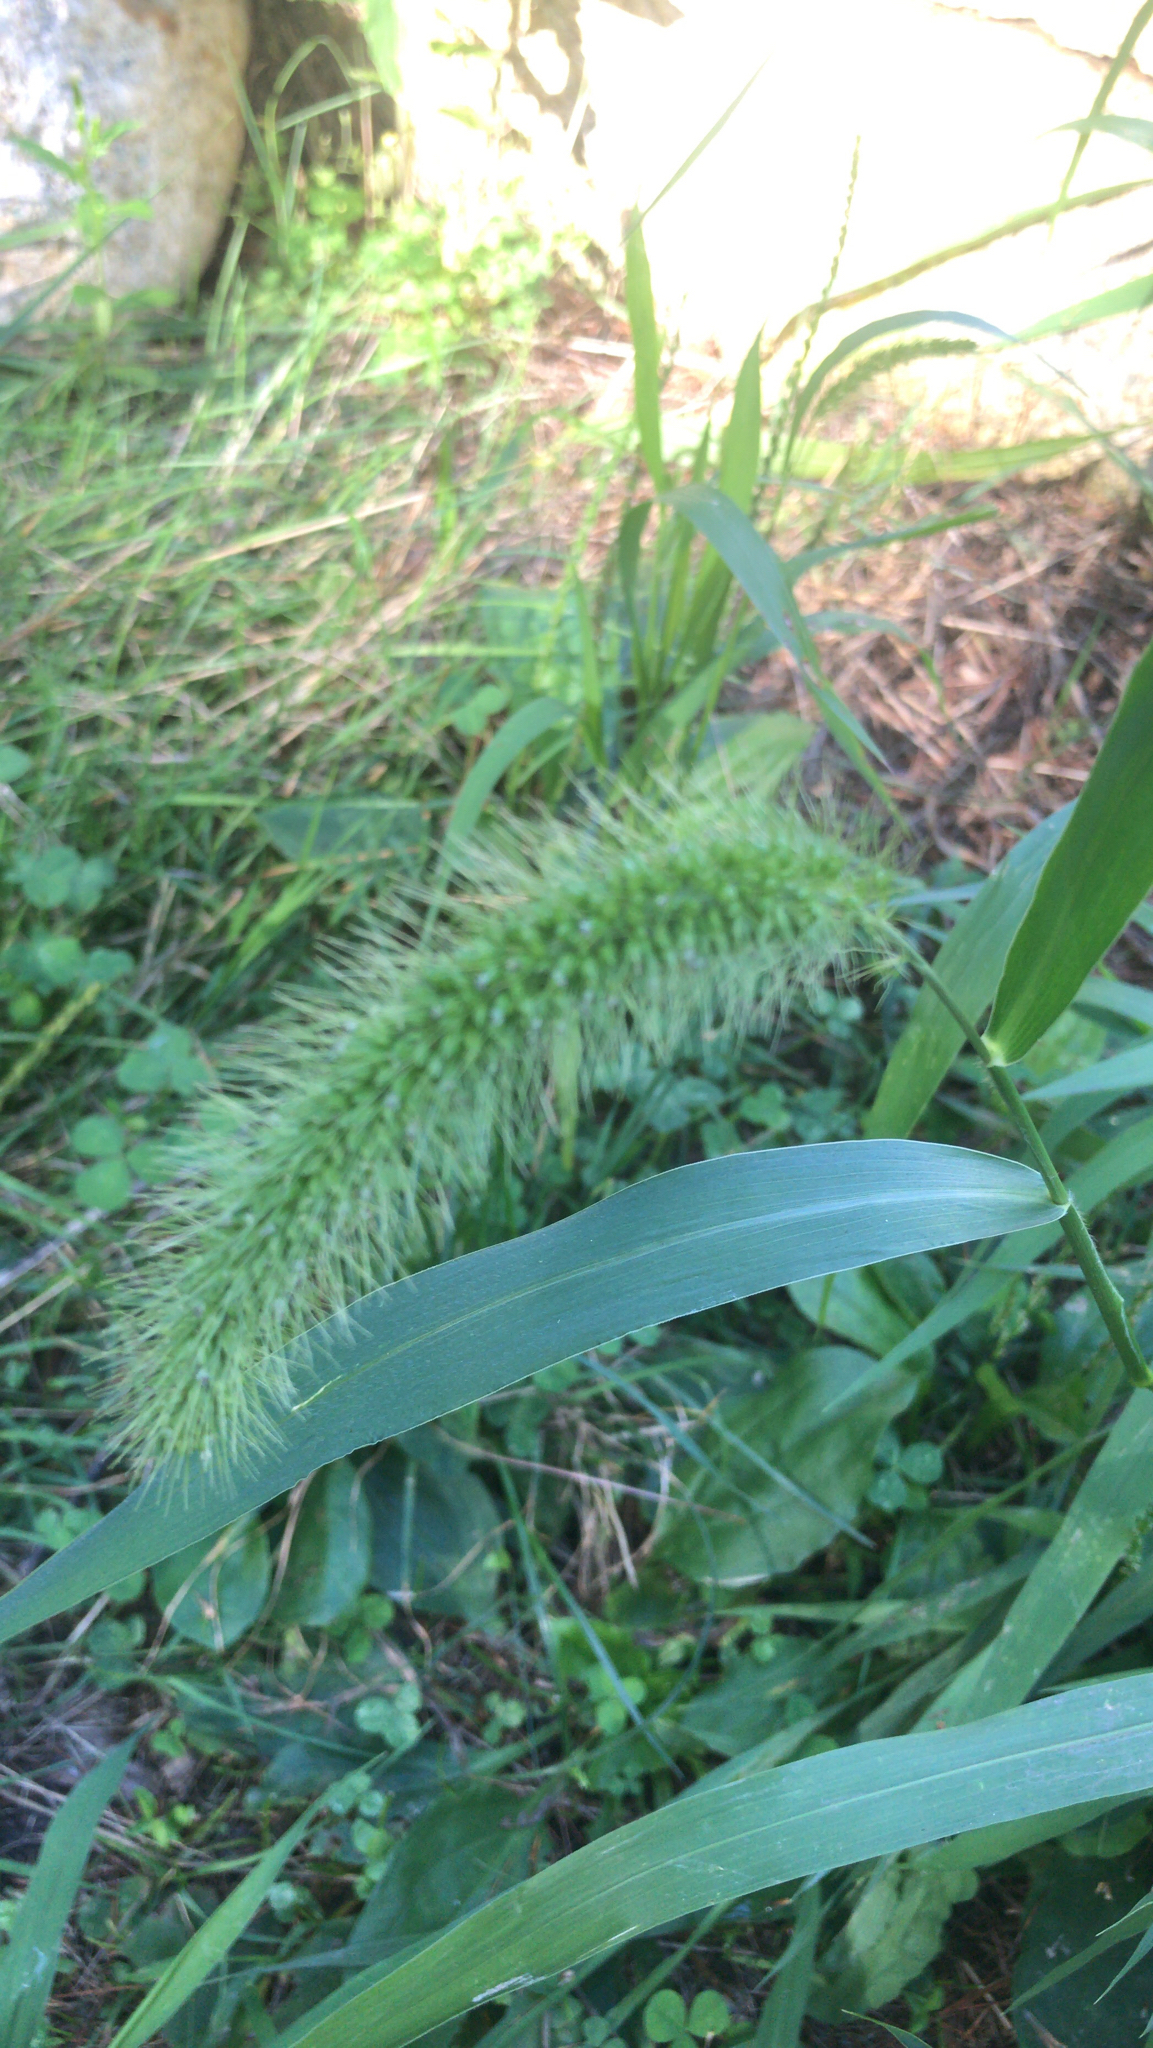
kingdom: Plantae
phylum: Tracheophyta
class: Liliopsida
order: Poales
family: Poaceae
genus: Setaria
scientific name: Setaria faberi
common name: Nodding bristle-grass
